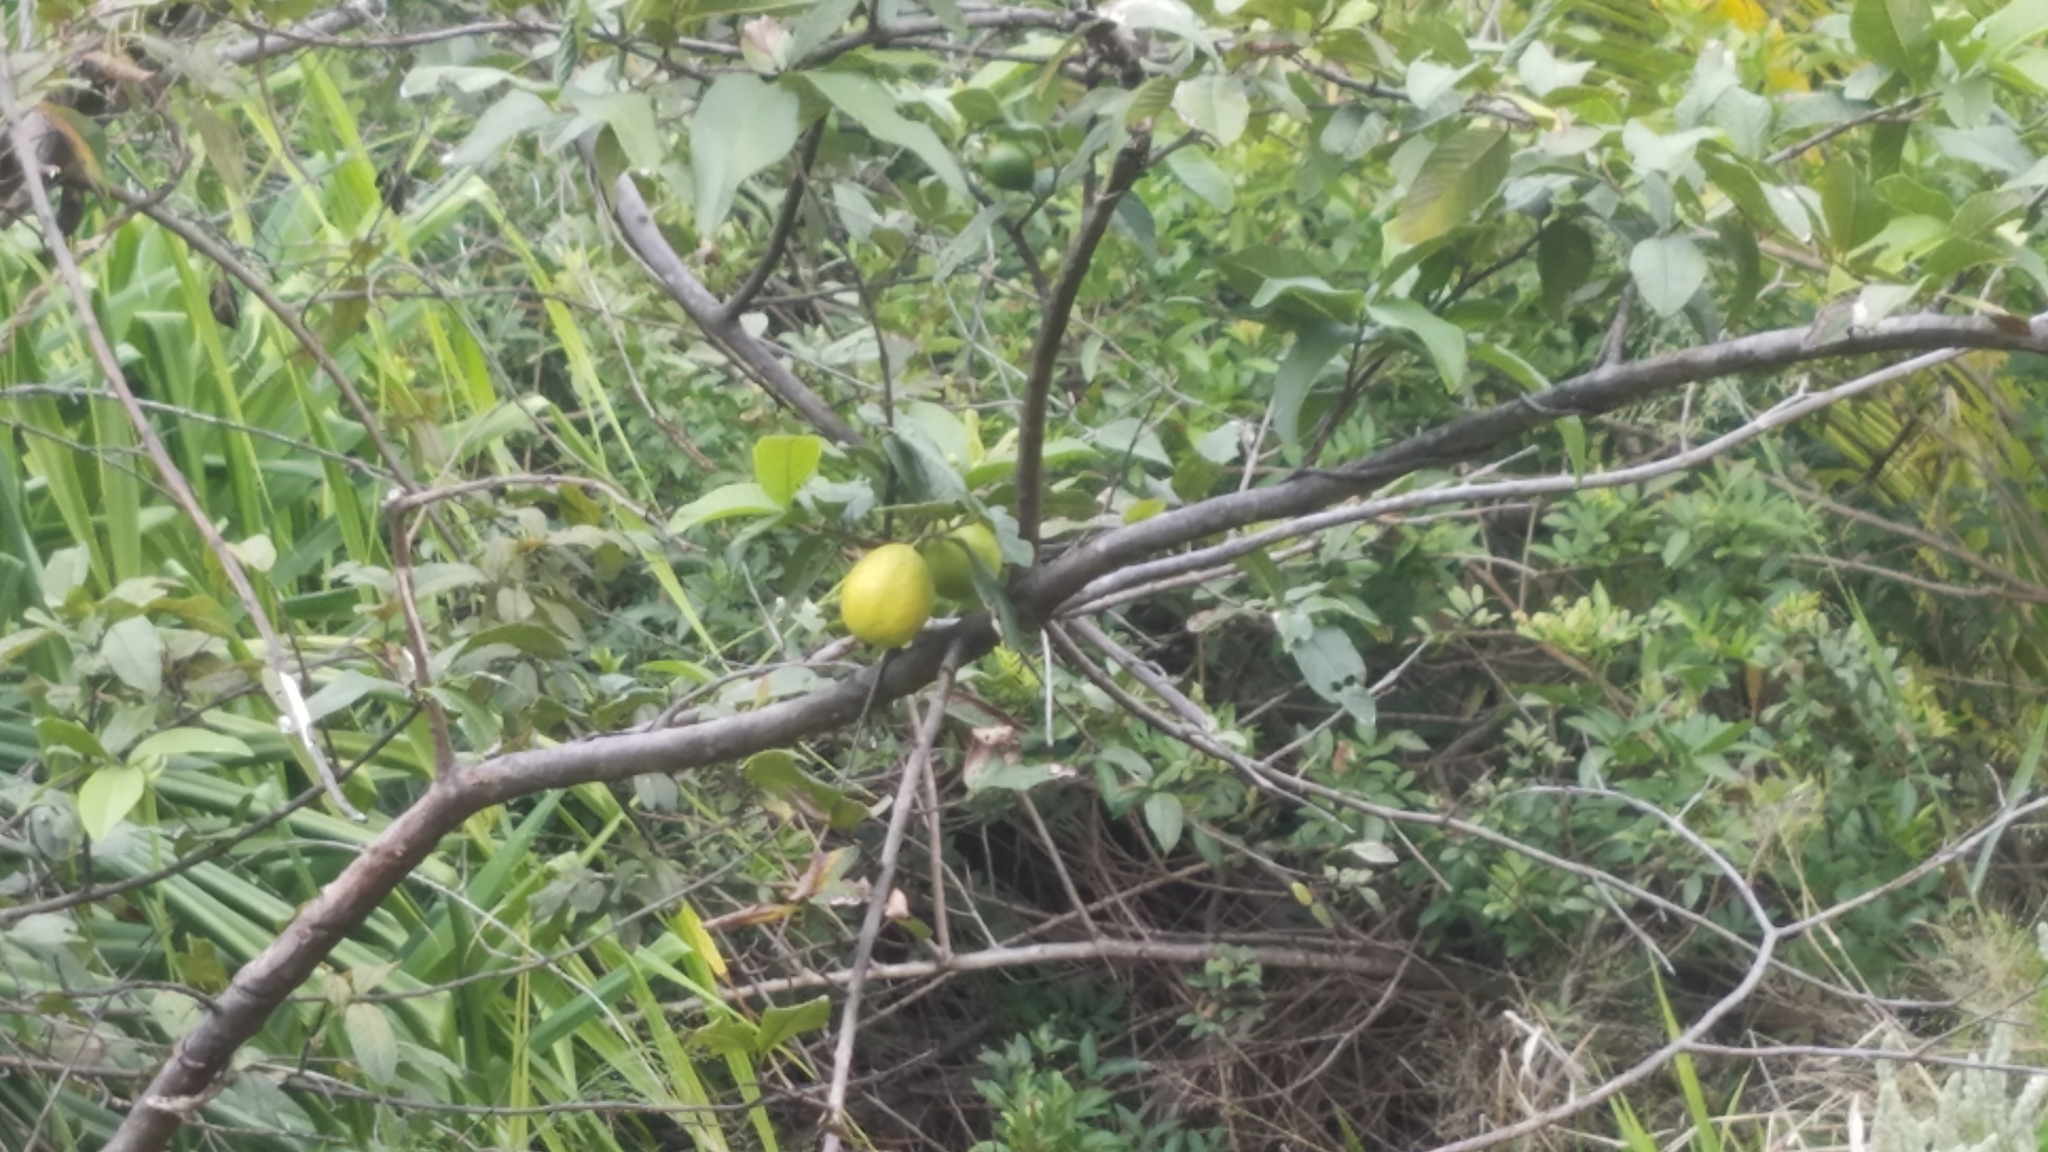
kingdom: Plantae
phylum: Tracheophyta
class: Magnoliopsida
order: Myrtales
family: Myrtaceae
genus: Psidium
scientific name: Psidium guajava
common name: Guava
